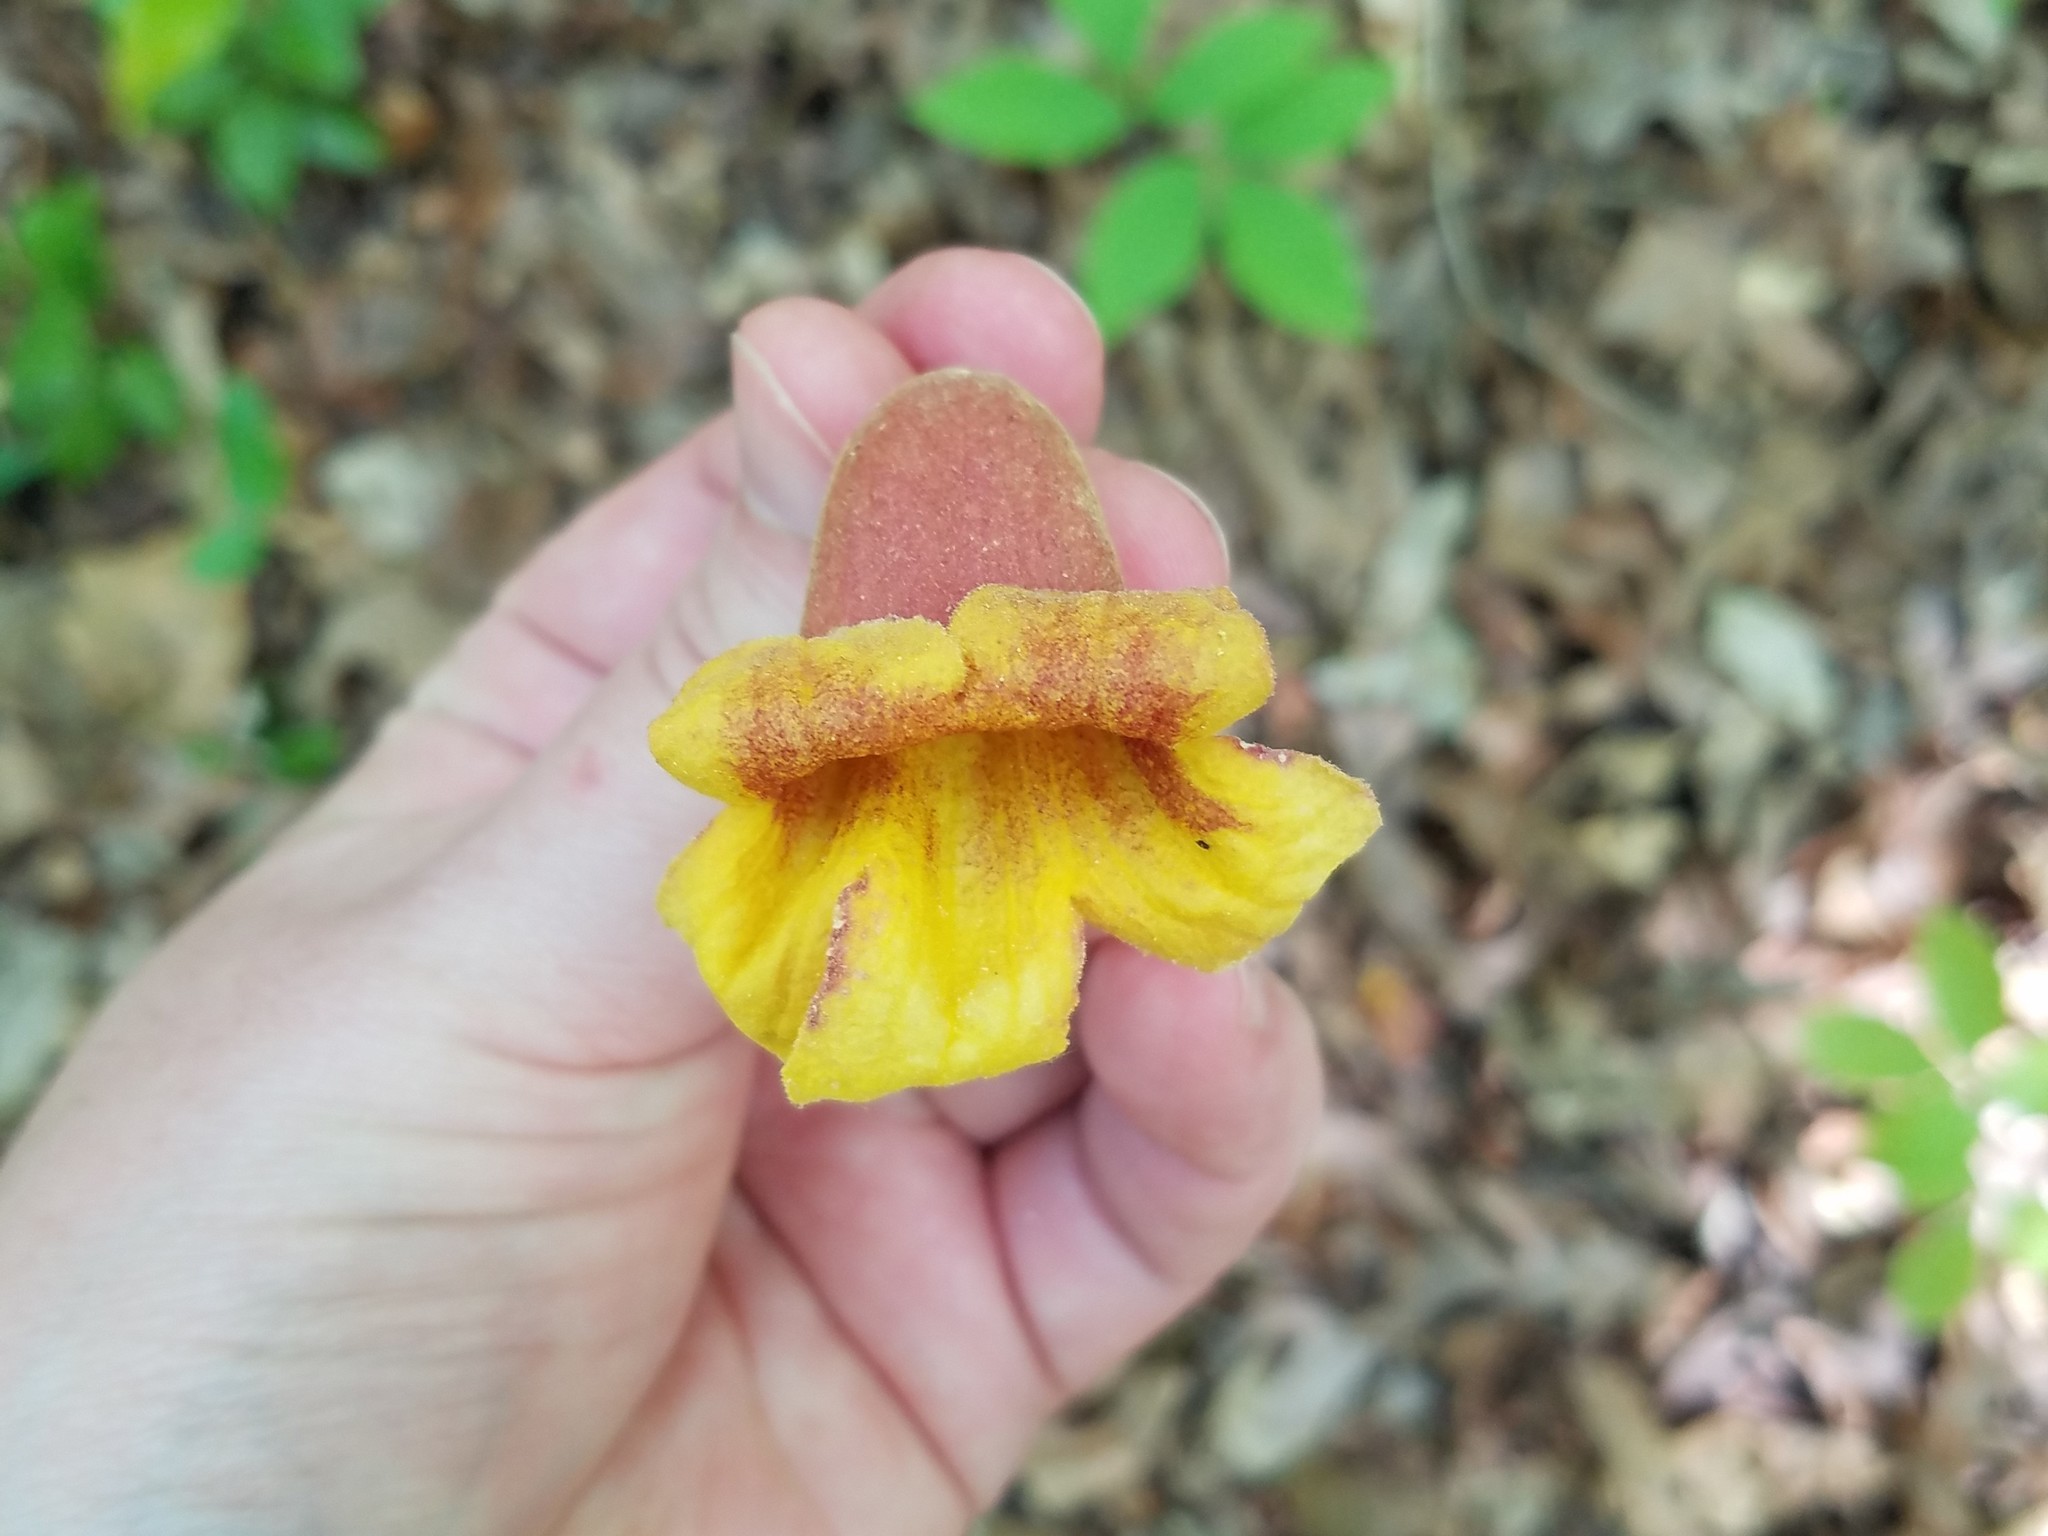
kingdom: Plantae
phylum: Tracheophyta
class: Magnoliopsida
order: Lamiales
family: Bignoniaceae
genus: Bignonia
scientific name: Bignonia capreolata
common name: Crossvine
